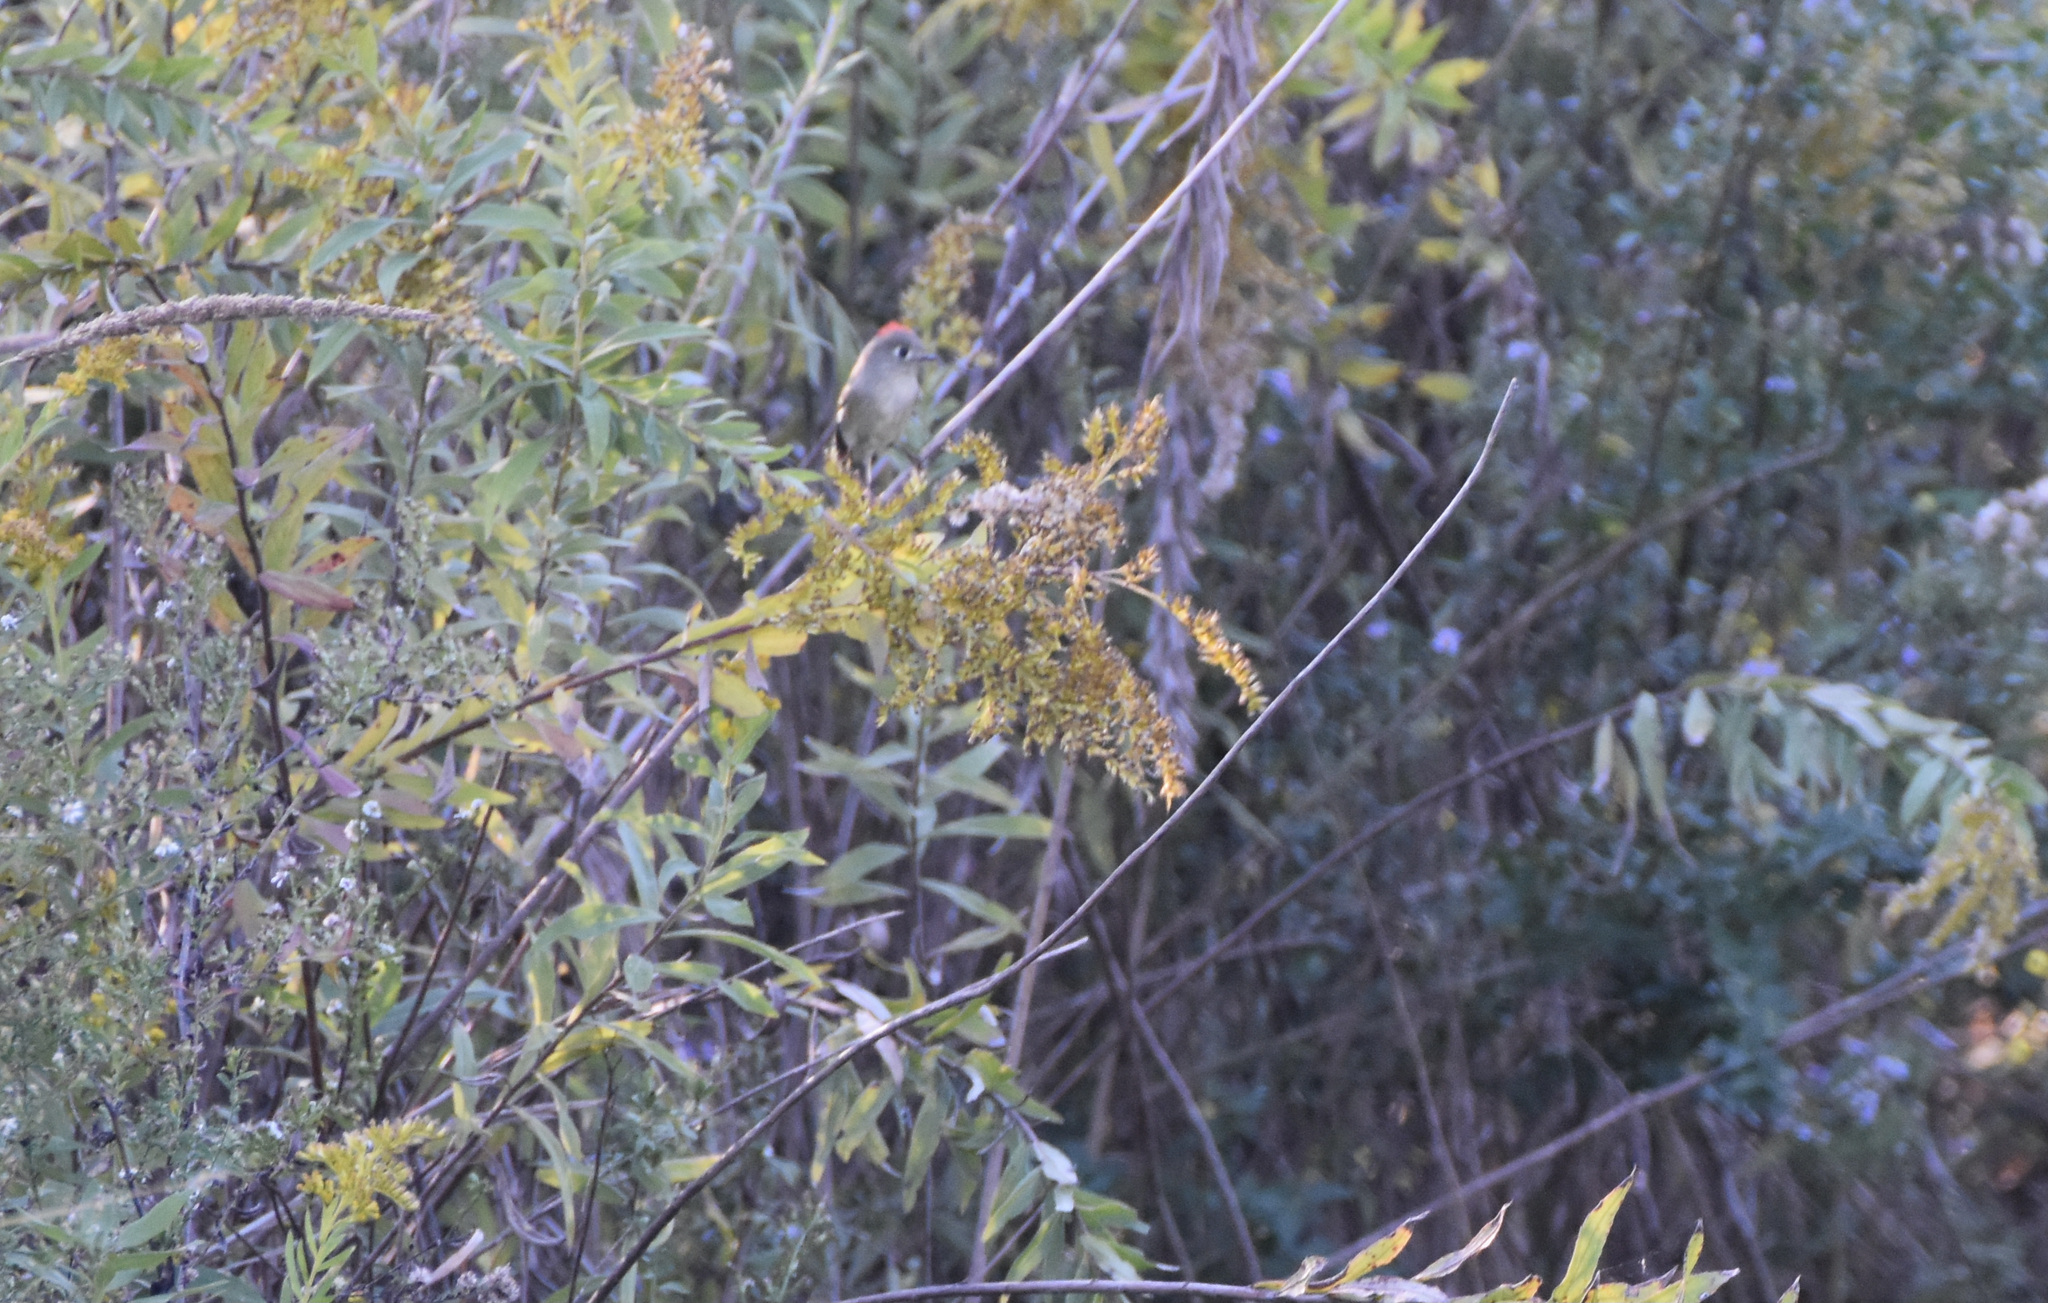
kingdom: Animalia
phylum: Chordata
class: Aves
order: Passeriformes
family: Regulidae
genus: Regulus
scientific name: Regulus calendula
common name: Ruby-crowned kinglet
